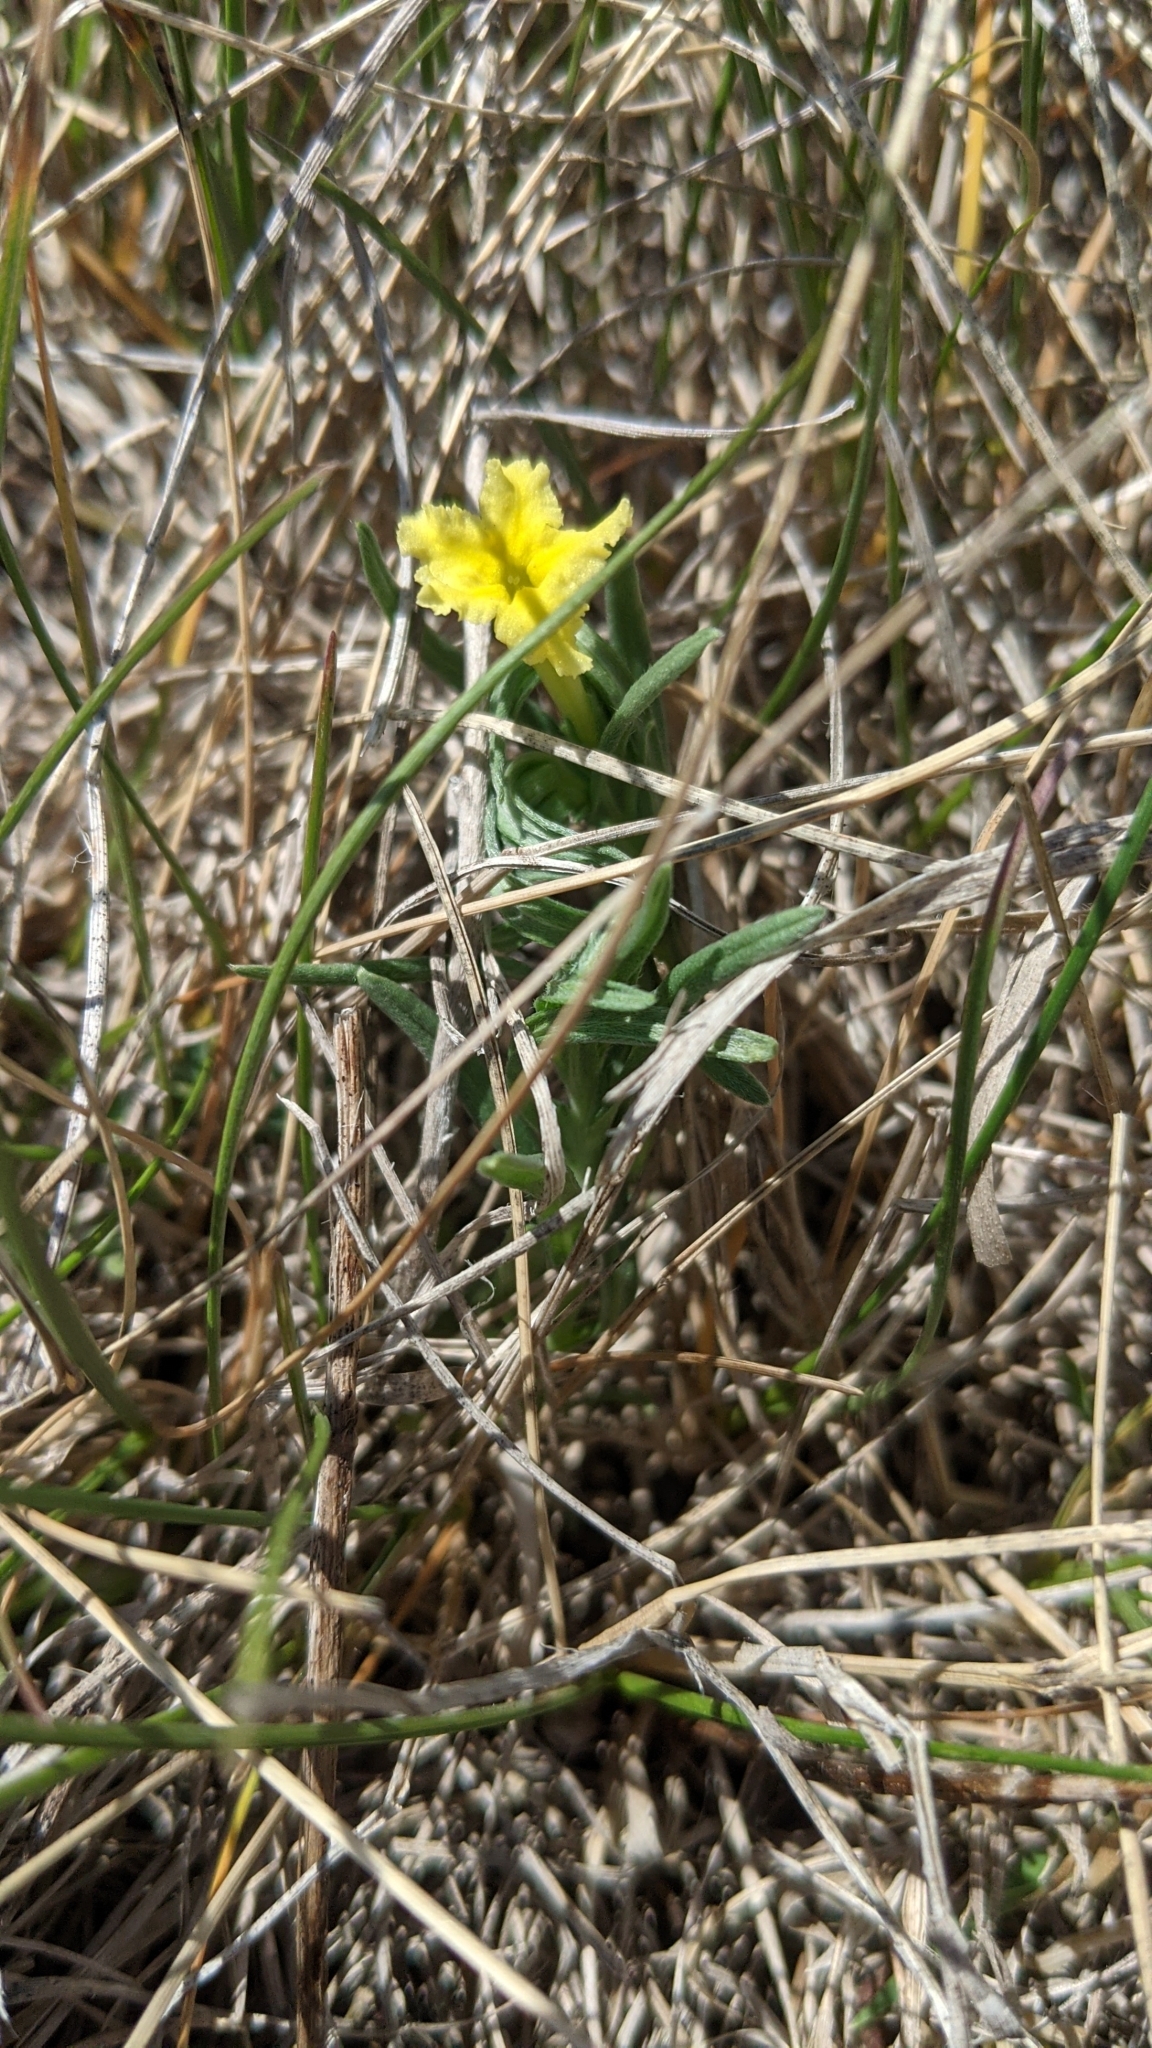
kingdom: Plantae
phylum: Tracheophyta
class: Magnoliopsida
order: Boraginales
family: Boraginaceae
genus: Lithospermum
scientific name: Lithospermum incisum
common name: Fringed gromwell
